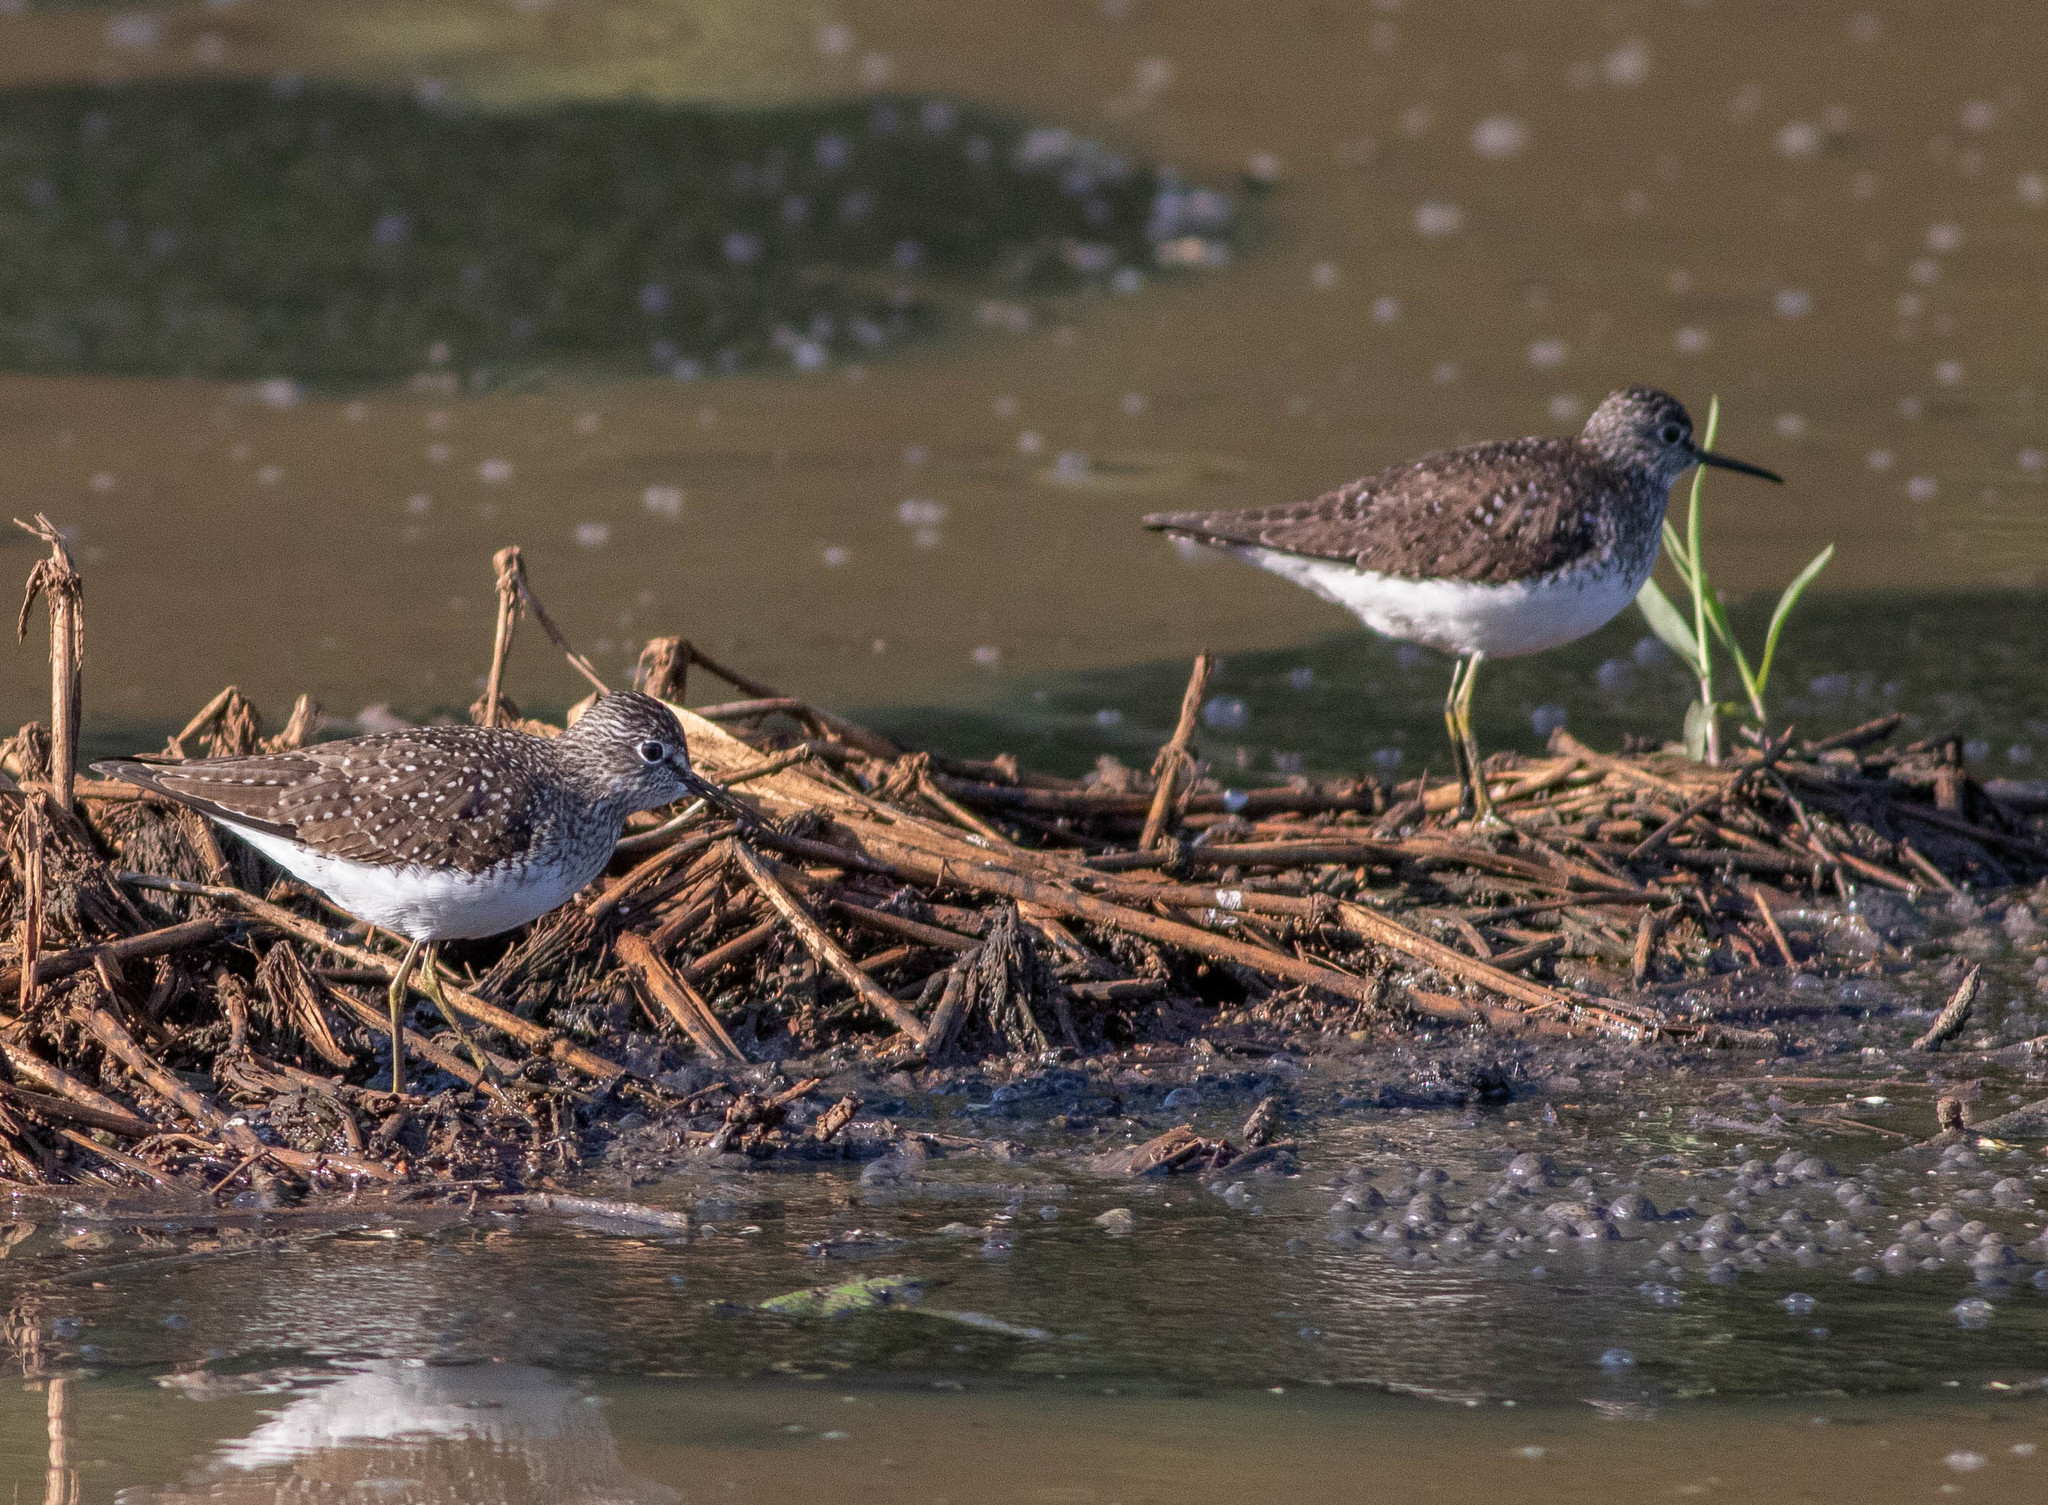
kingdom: Animalia
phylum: Chordata
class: Aves
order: Charadriiformes
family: Scolopacidae
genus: Tringa
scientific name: Tringa solitaria
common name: Solitary sandpiper
